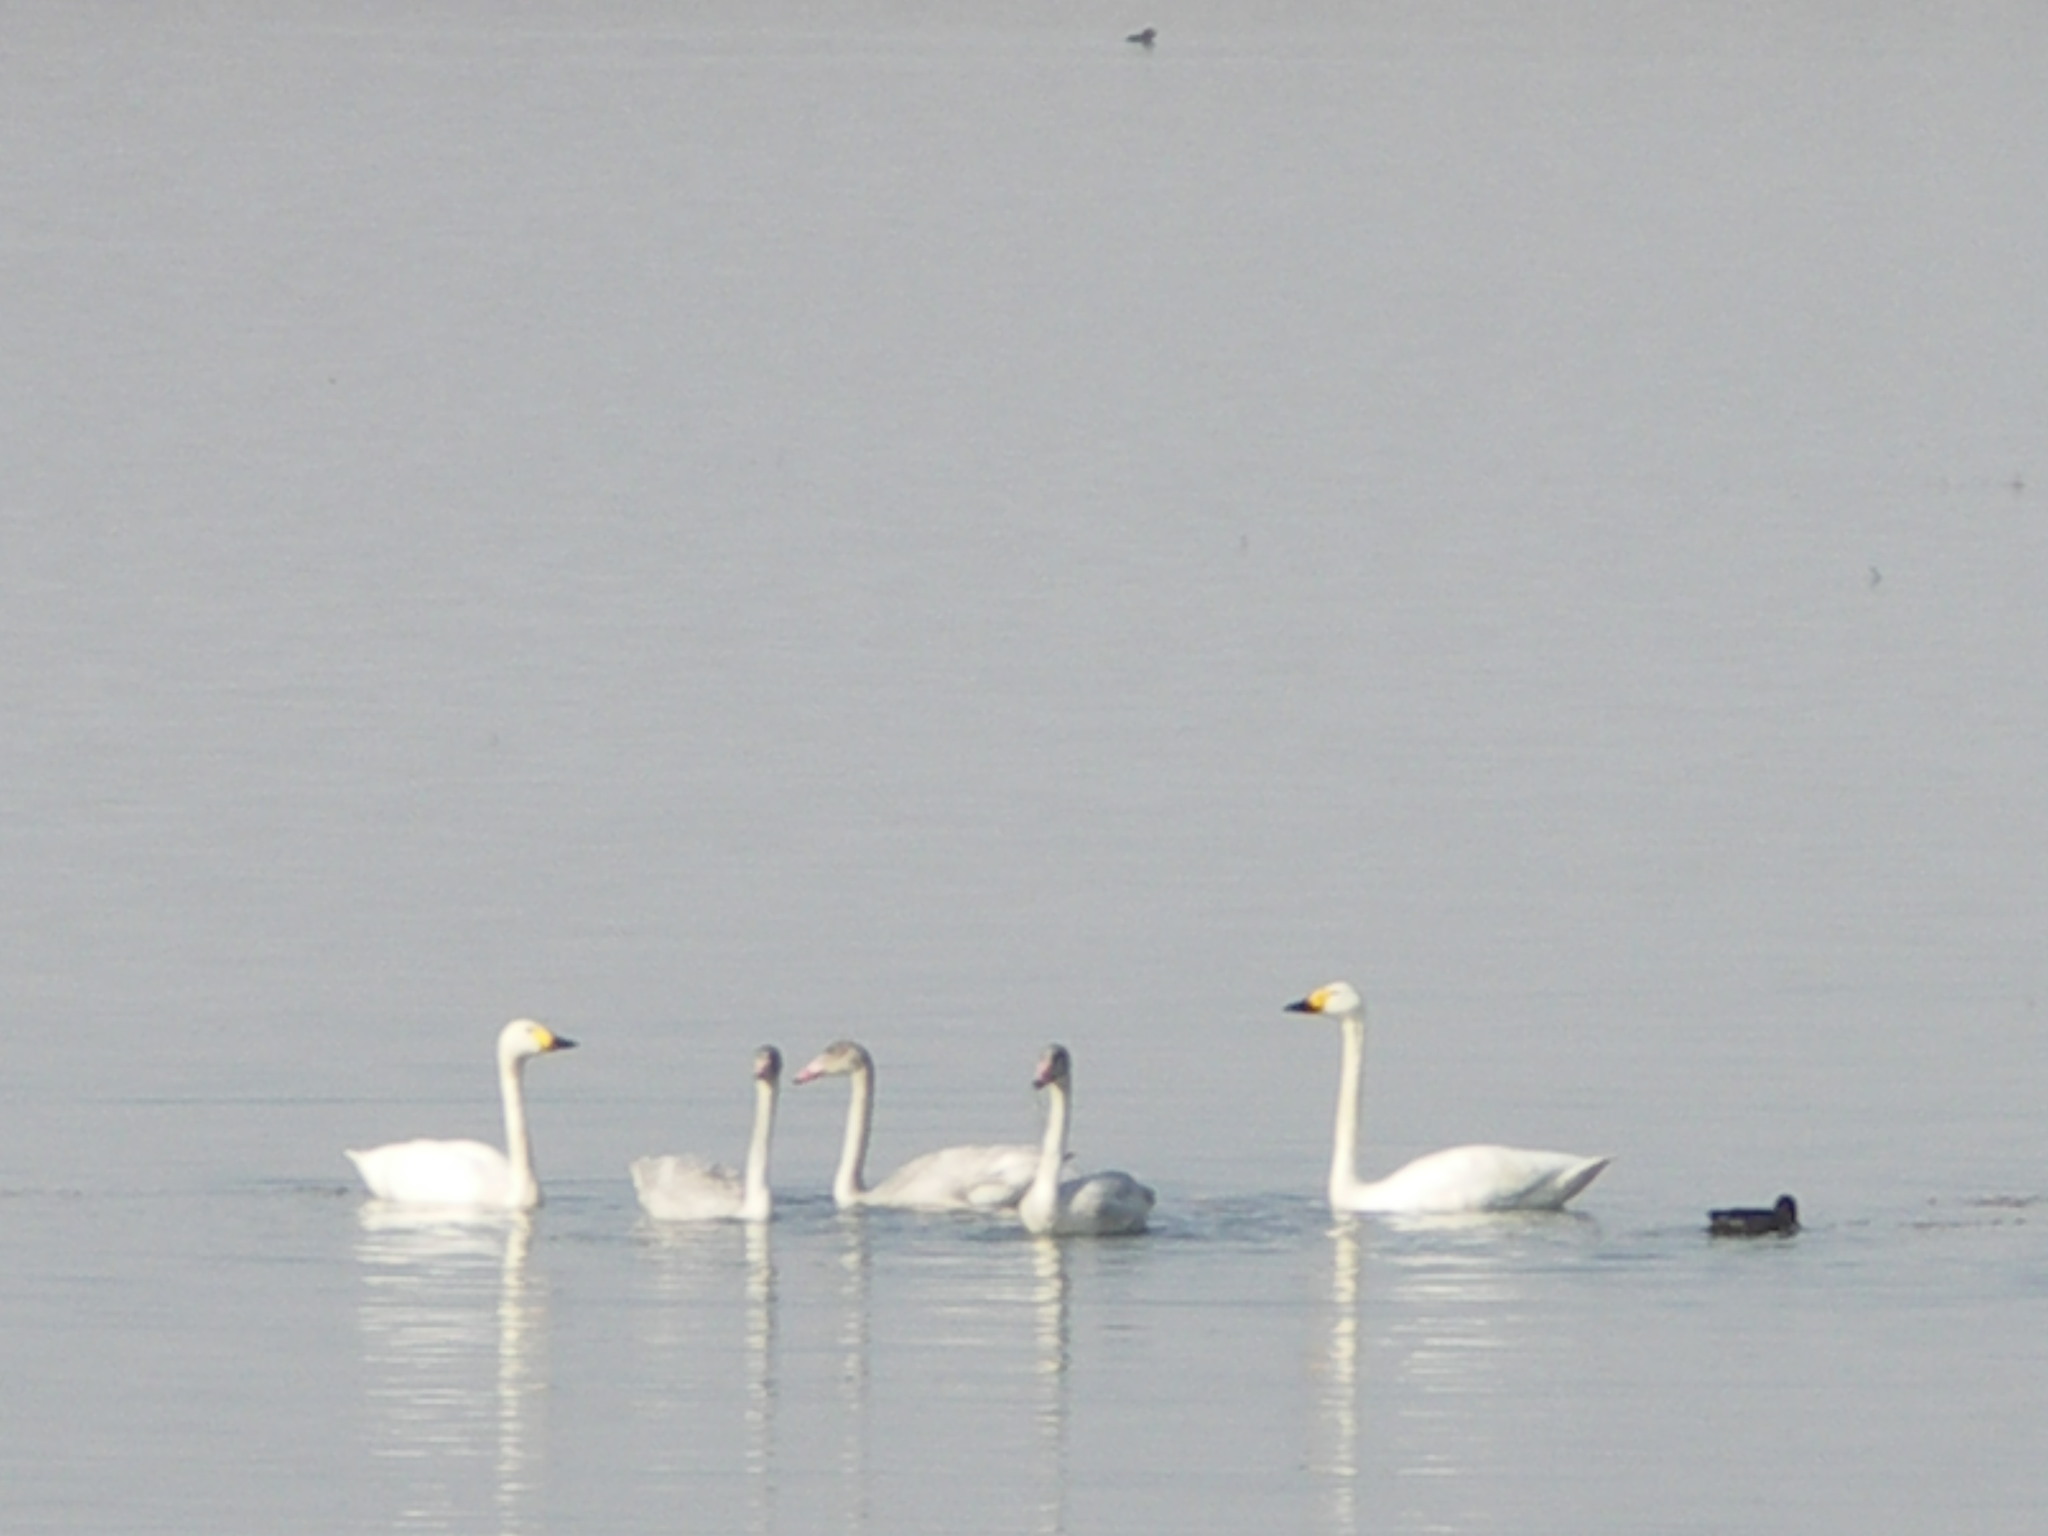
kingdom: Animalia
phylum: Chordata
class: Aves
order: Anseriformes
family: Anatidae
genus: Cygnus
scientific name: Cygnus columbianus
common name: Tundra swan
